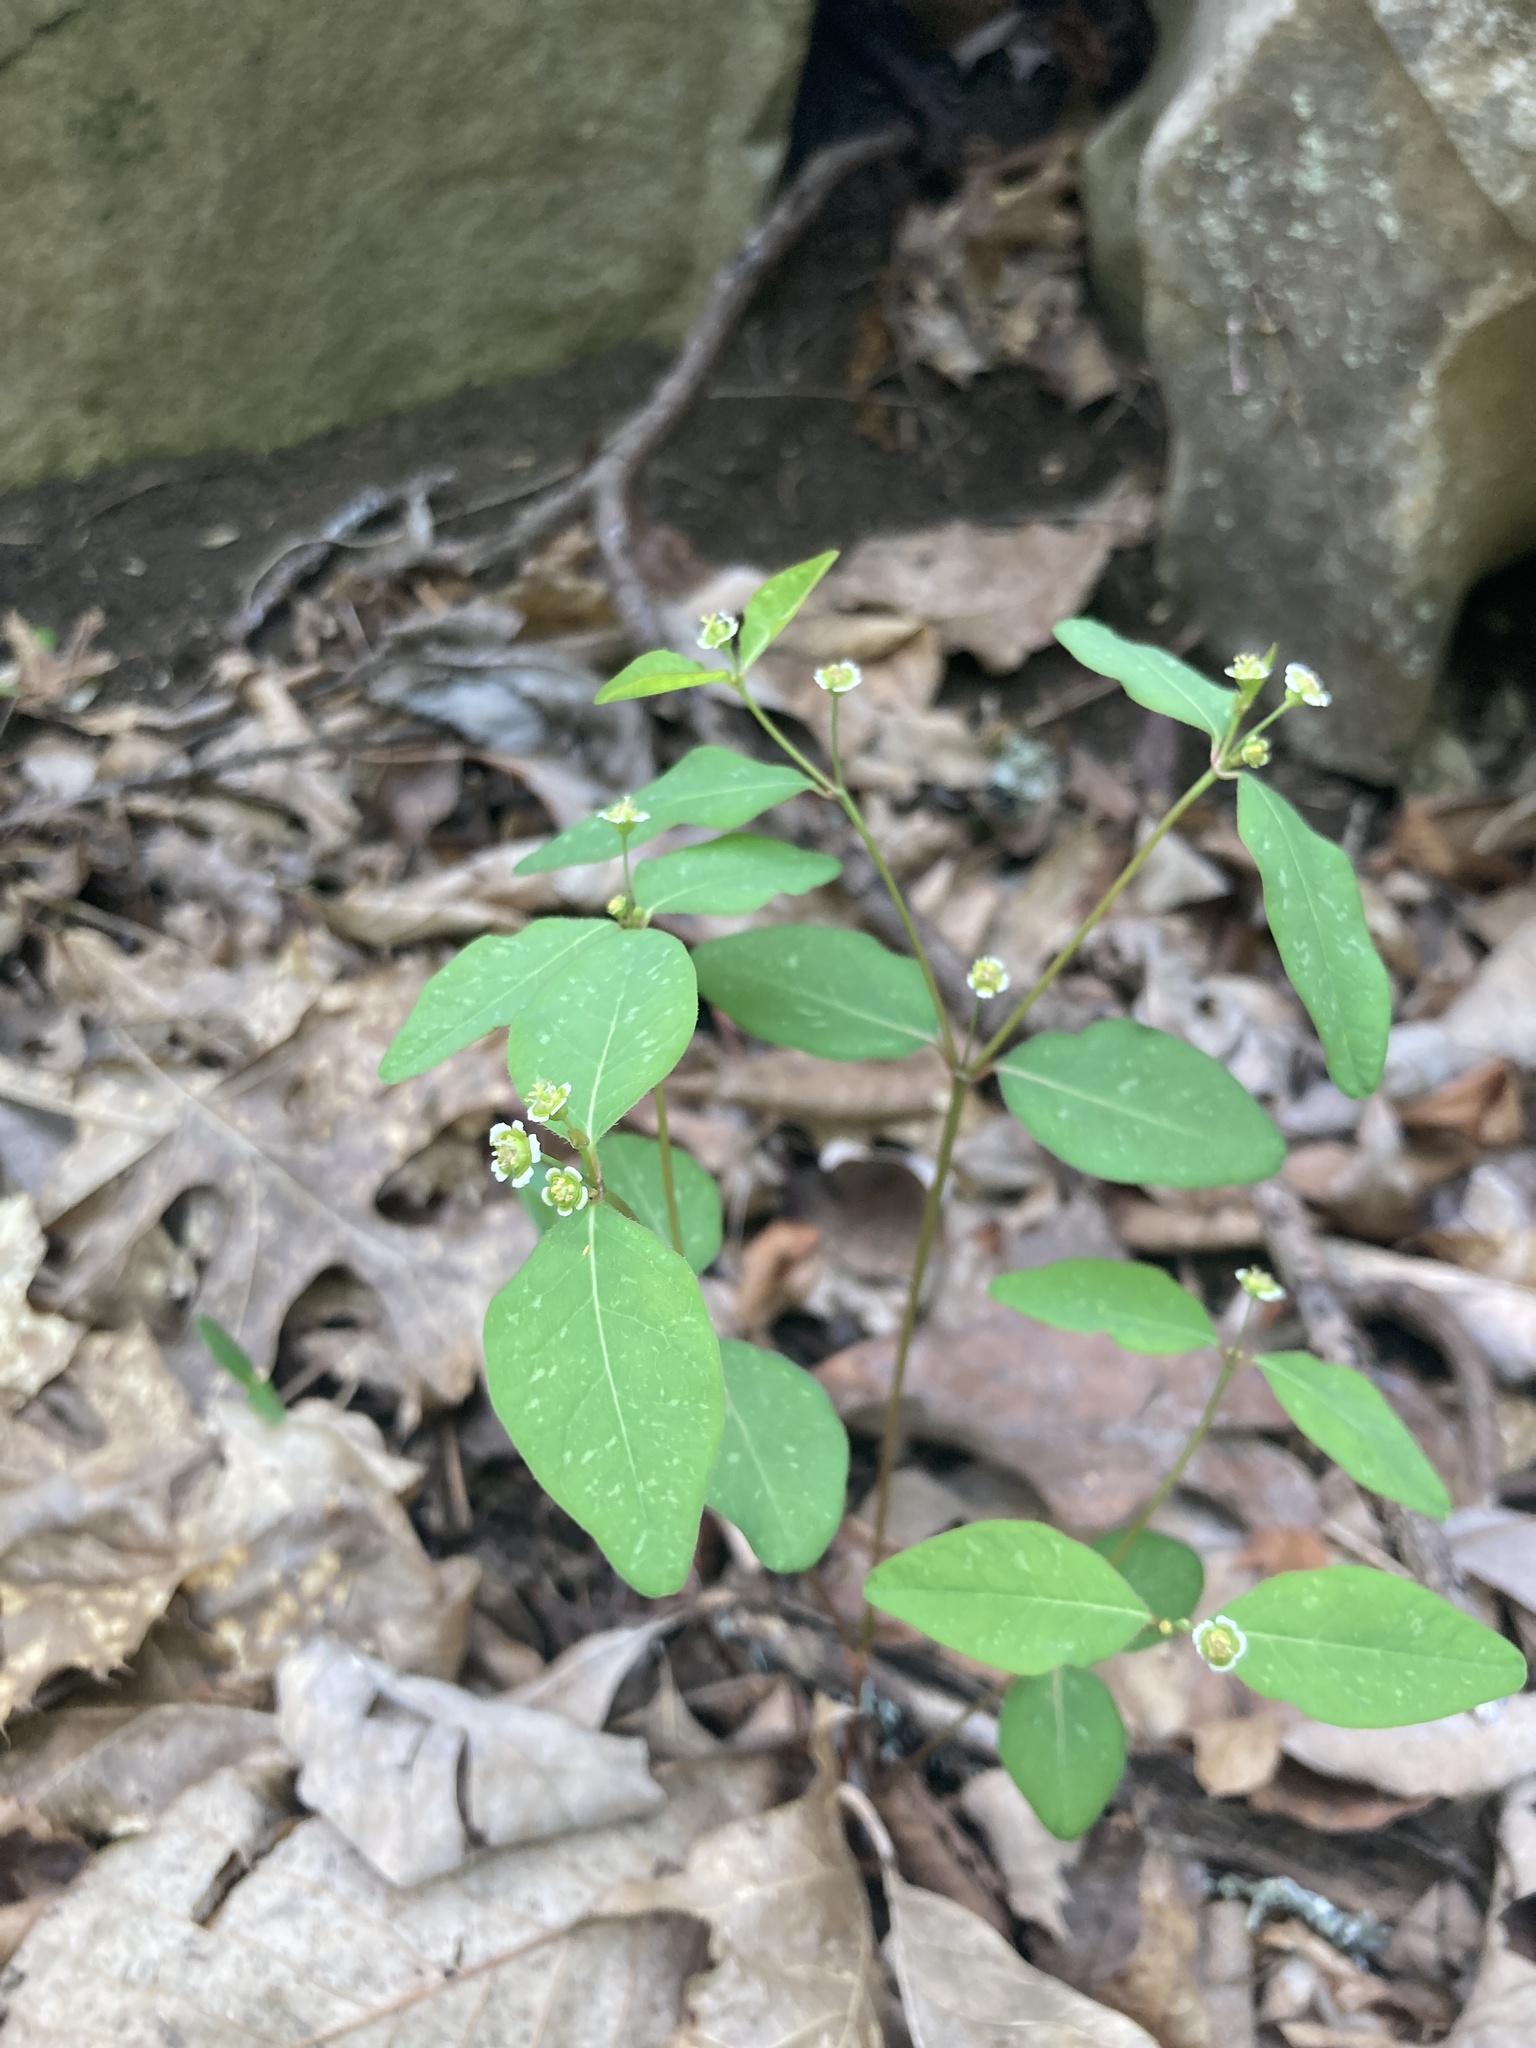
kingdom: Plantae
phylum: Tracheophyta
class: Magnoliopsida
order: Malpighiales
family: Euphorbiaceae
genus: Euphorbia
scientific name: Euphorbia mercurialina
